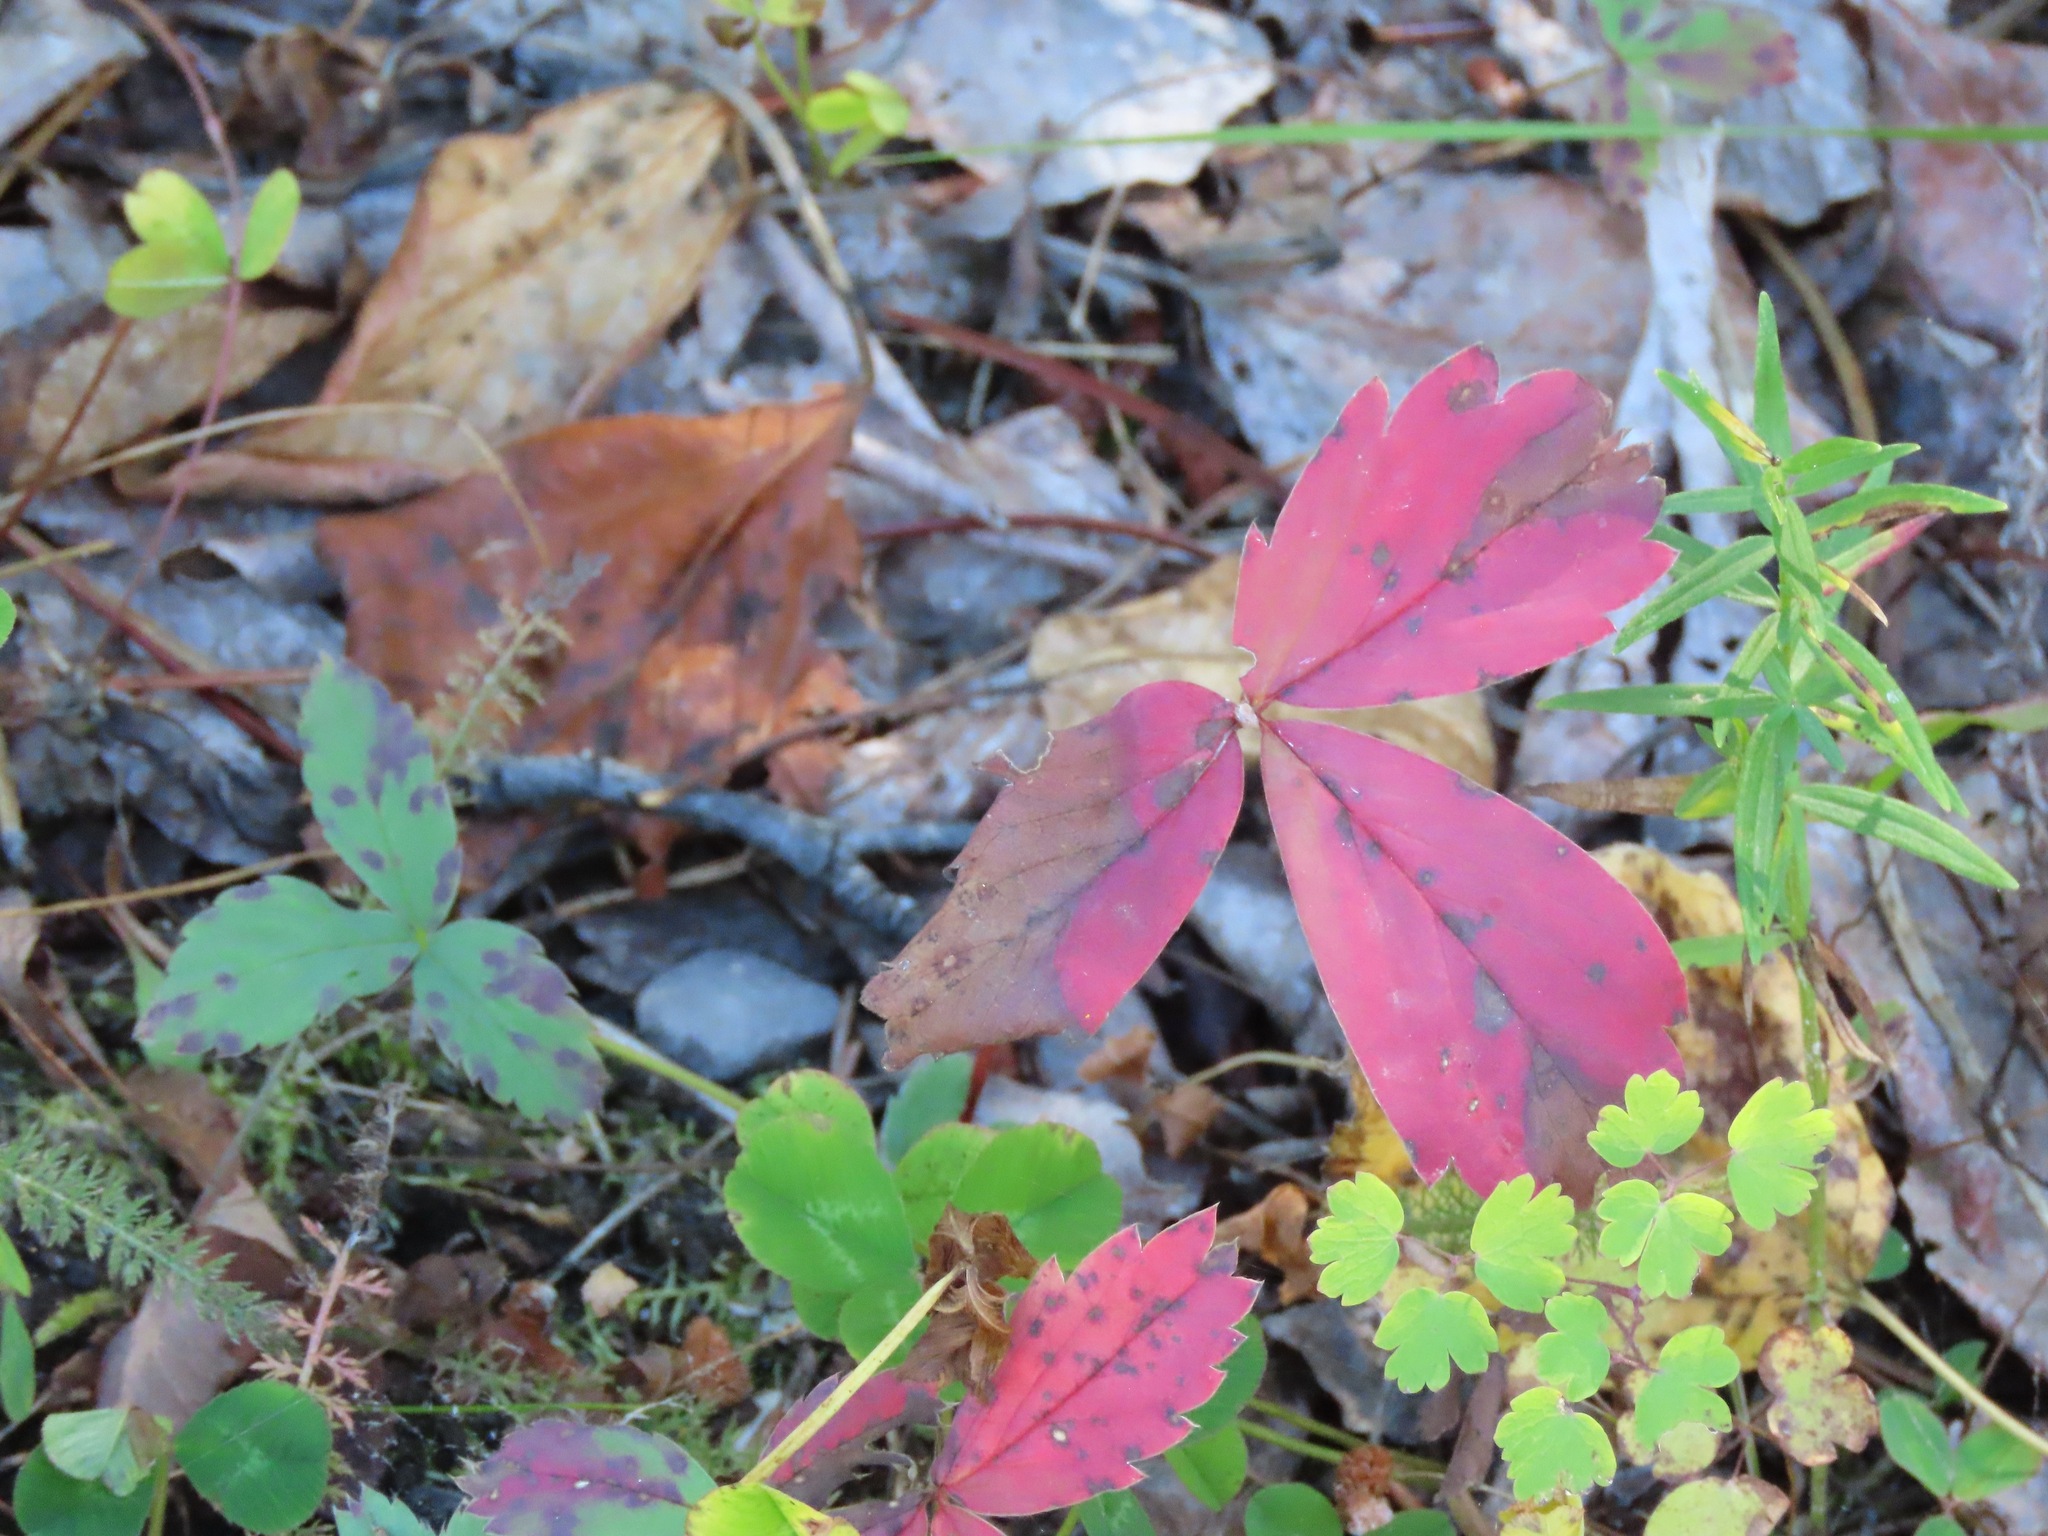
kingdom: Plantae
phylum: Tracheophyta
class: Magnoliopsida
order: Rosales
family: Rosaceae
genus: Fragaria
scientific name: Fragaria virginiana
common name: Thickleaved wild strawberry
